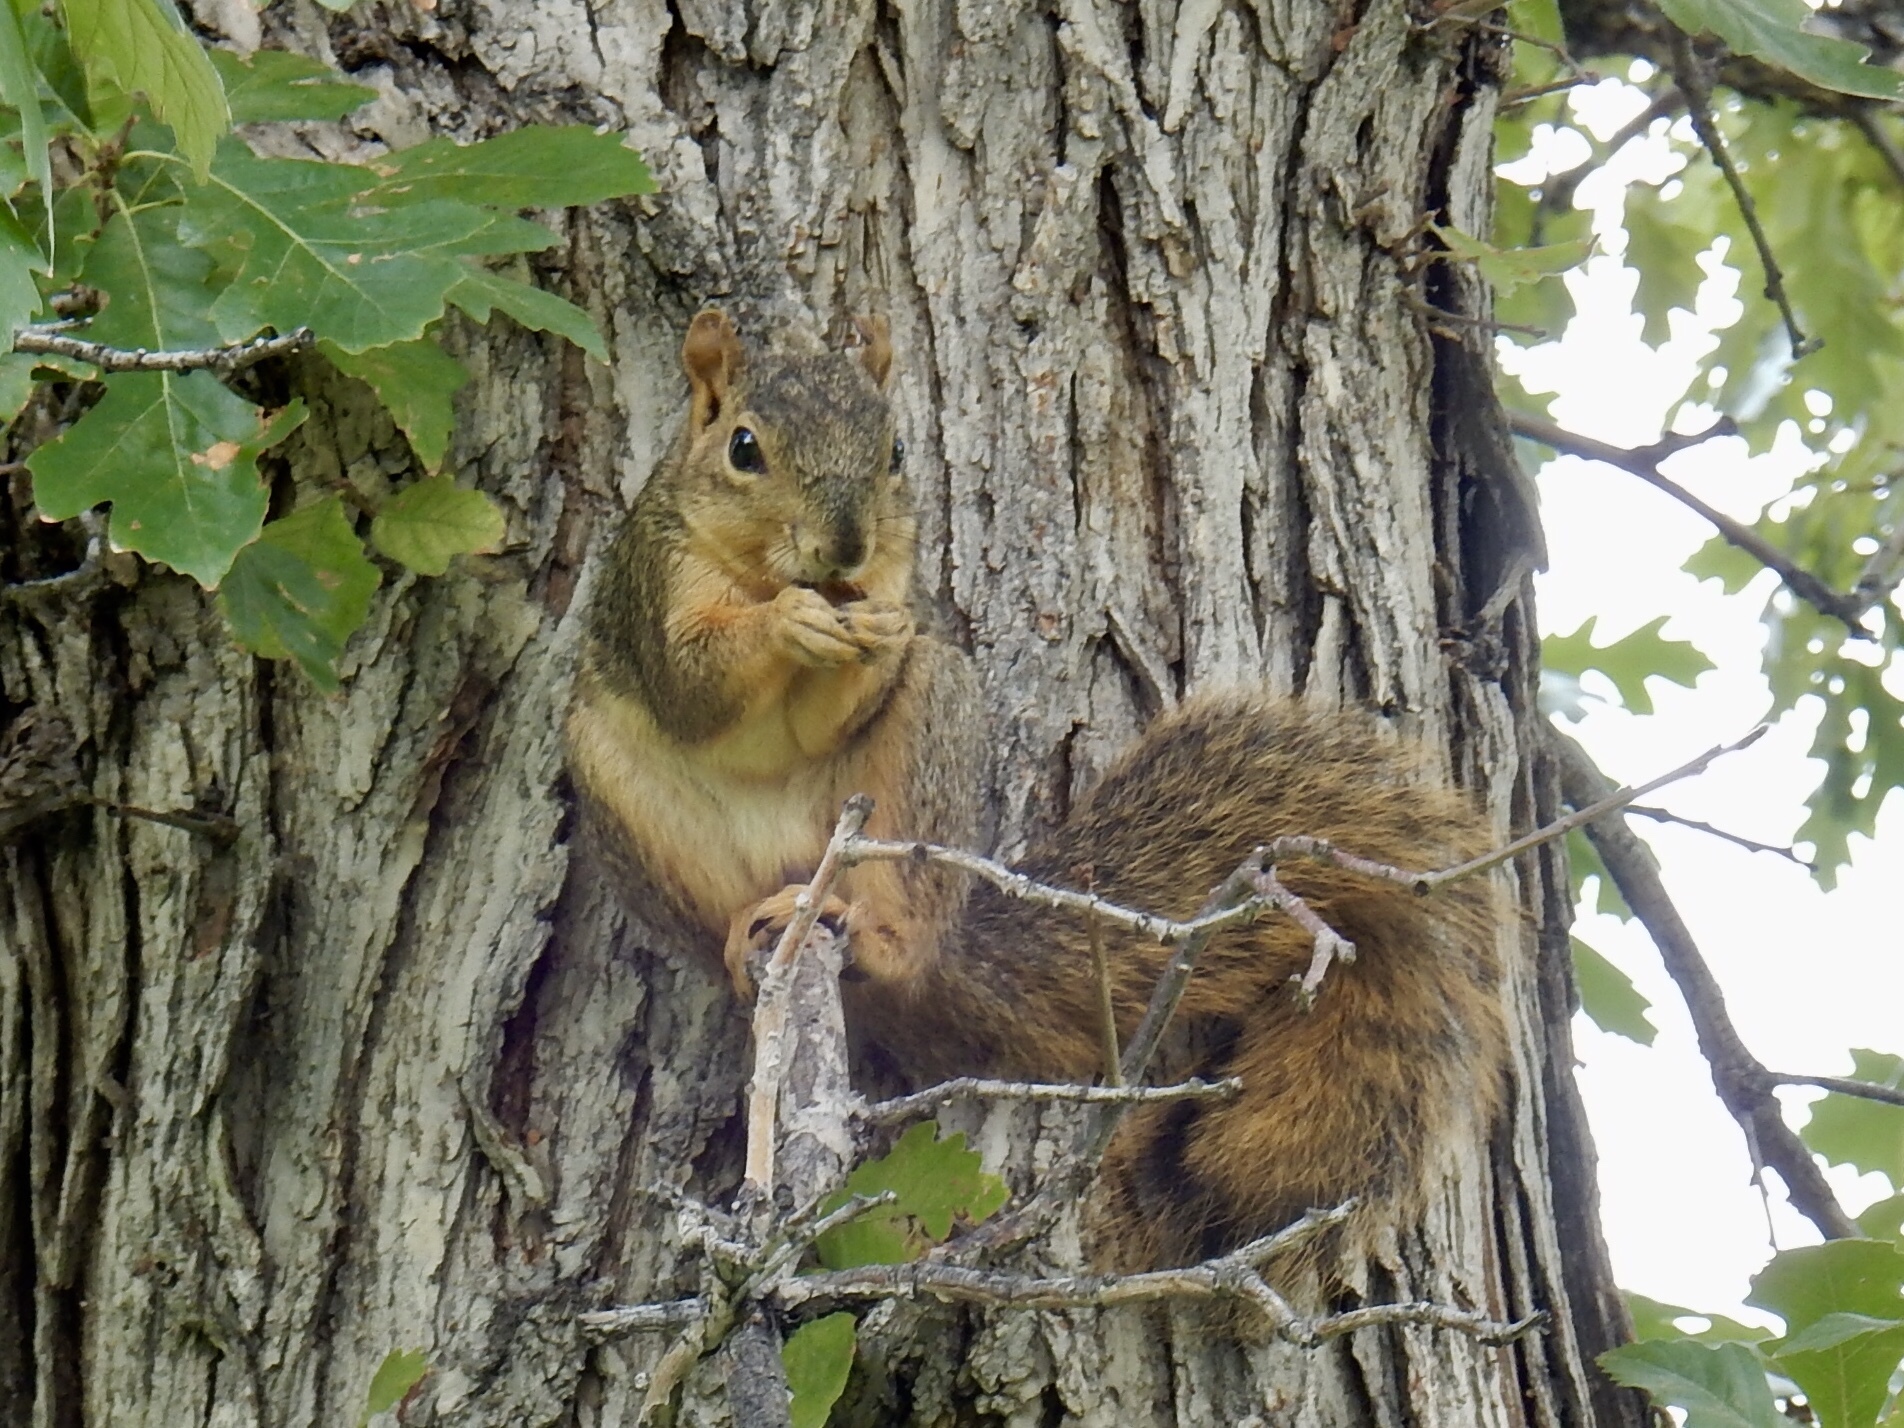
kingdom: Animalia
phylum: Chordata
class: Mammalia
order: Rodentia
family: Sciuridae
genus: Sciurus
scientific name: Sciurus niger
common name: Fox squirrel
